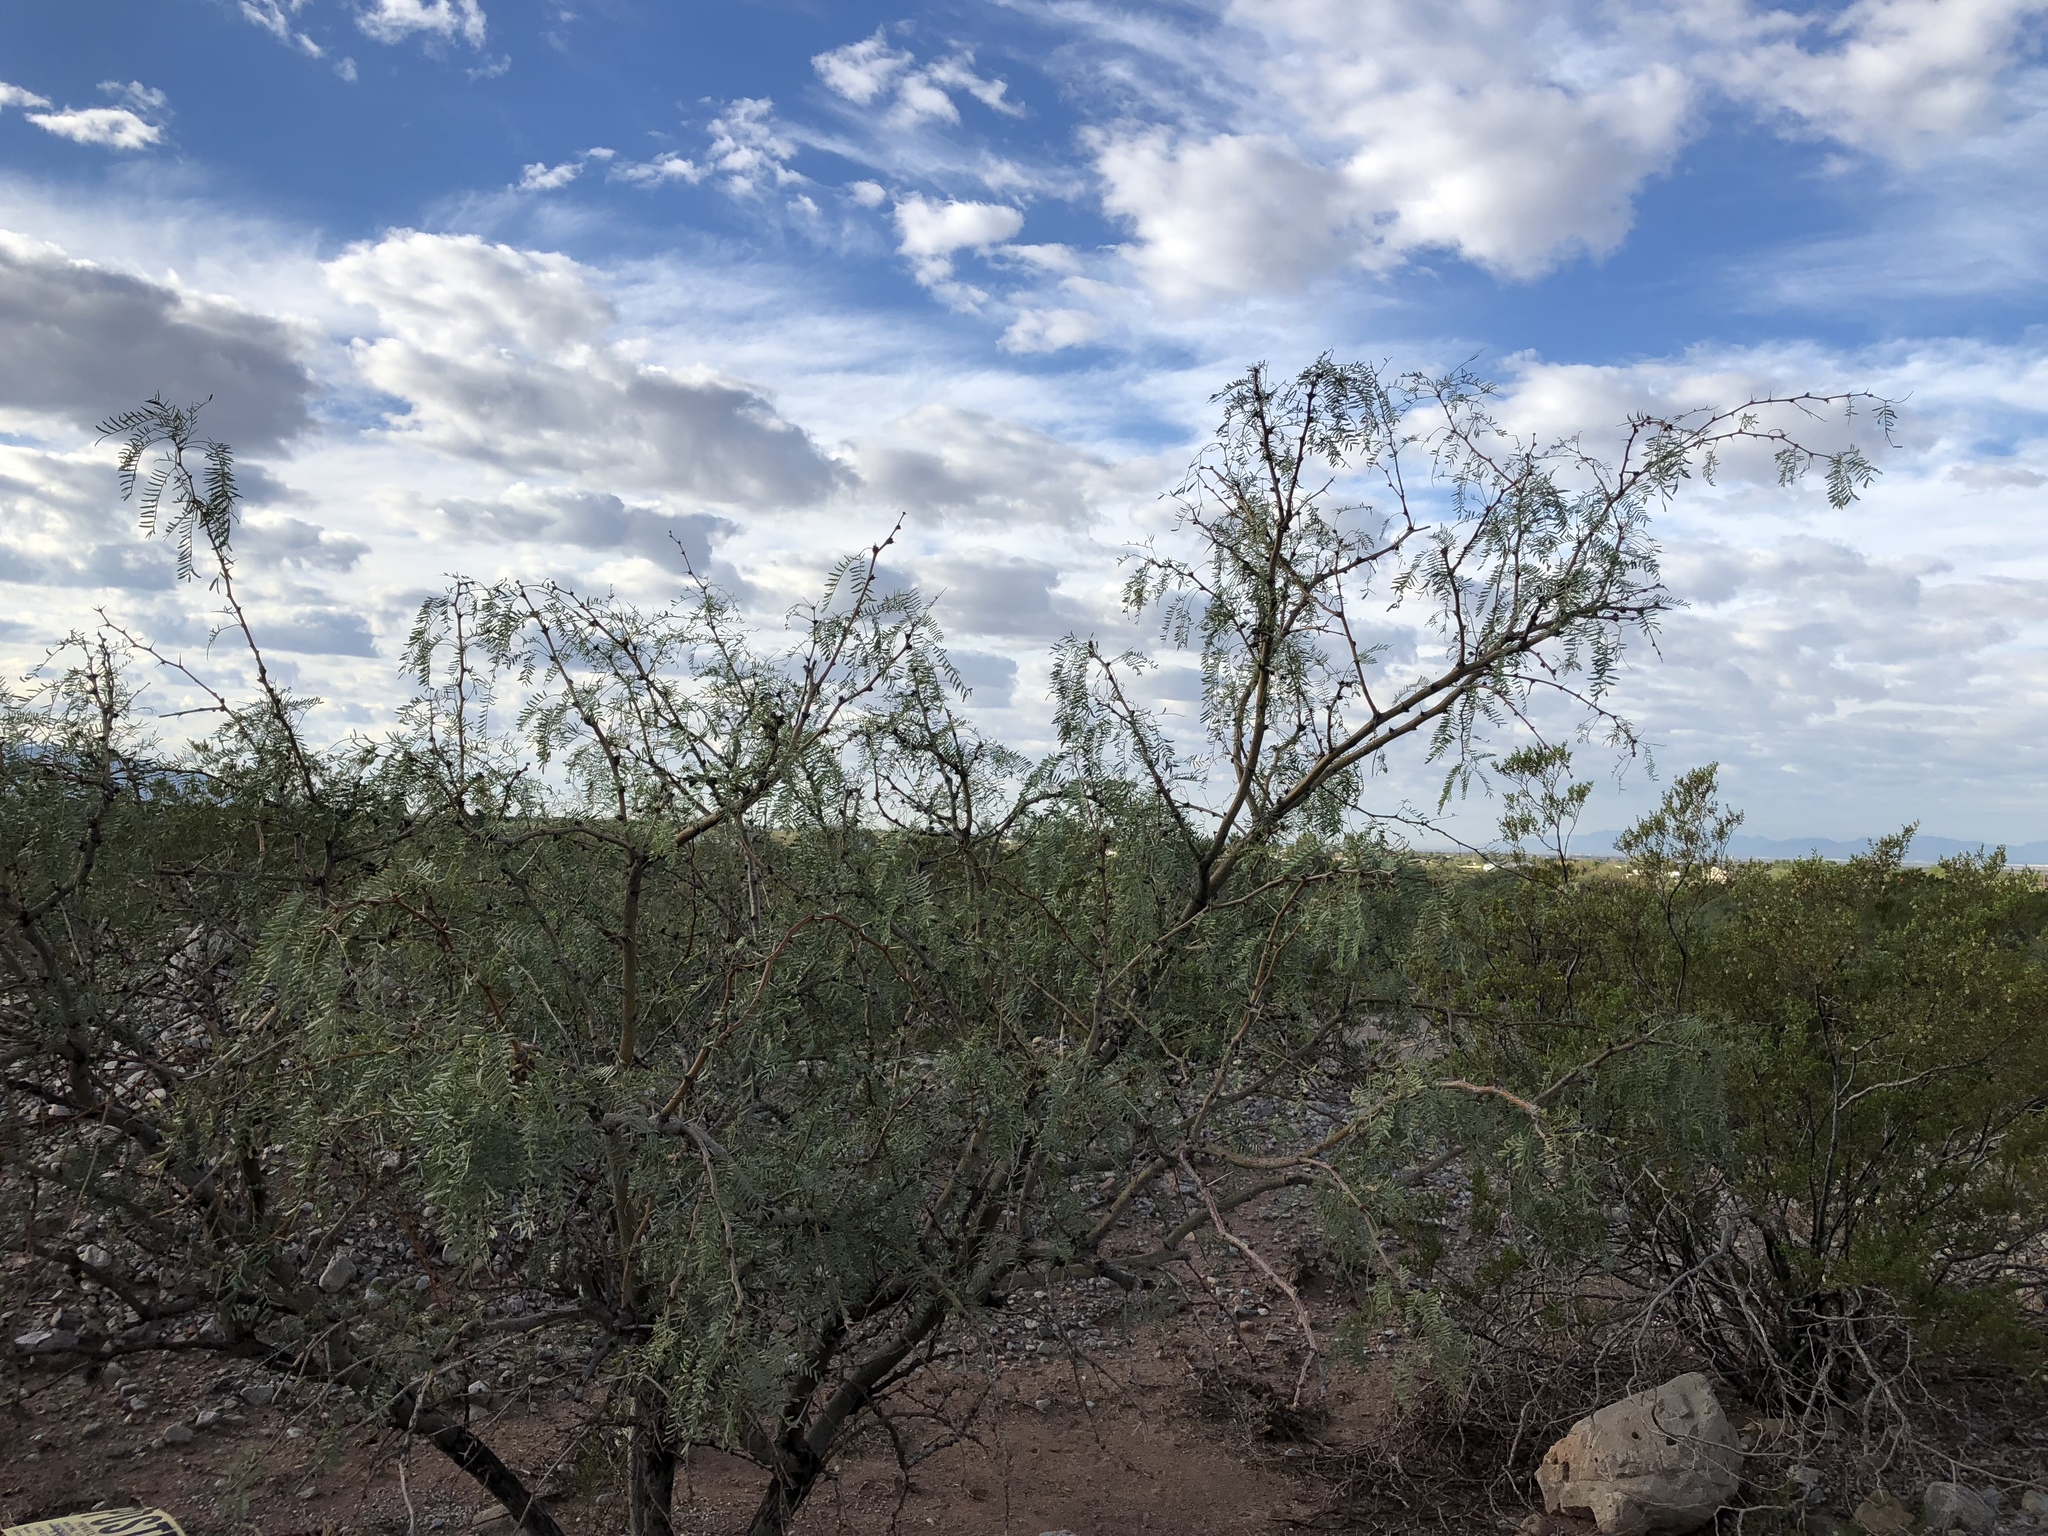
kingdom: Plantae
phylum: Tracheophyta
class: Magnoliopsida
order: Fabales
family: Fabaceae
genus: Prosopis
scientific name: Prosopis glandulosa
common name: Honey mesquite
